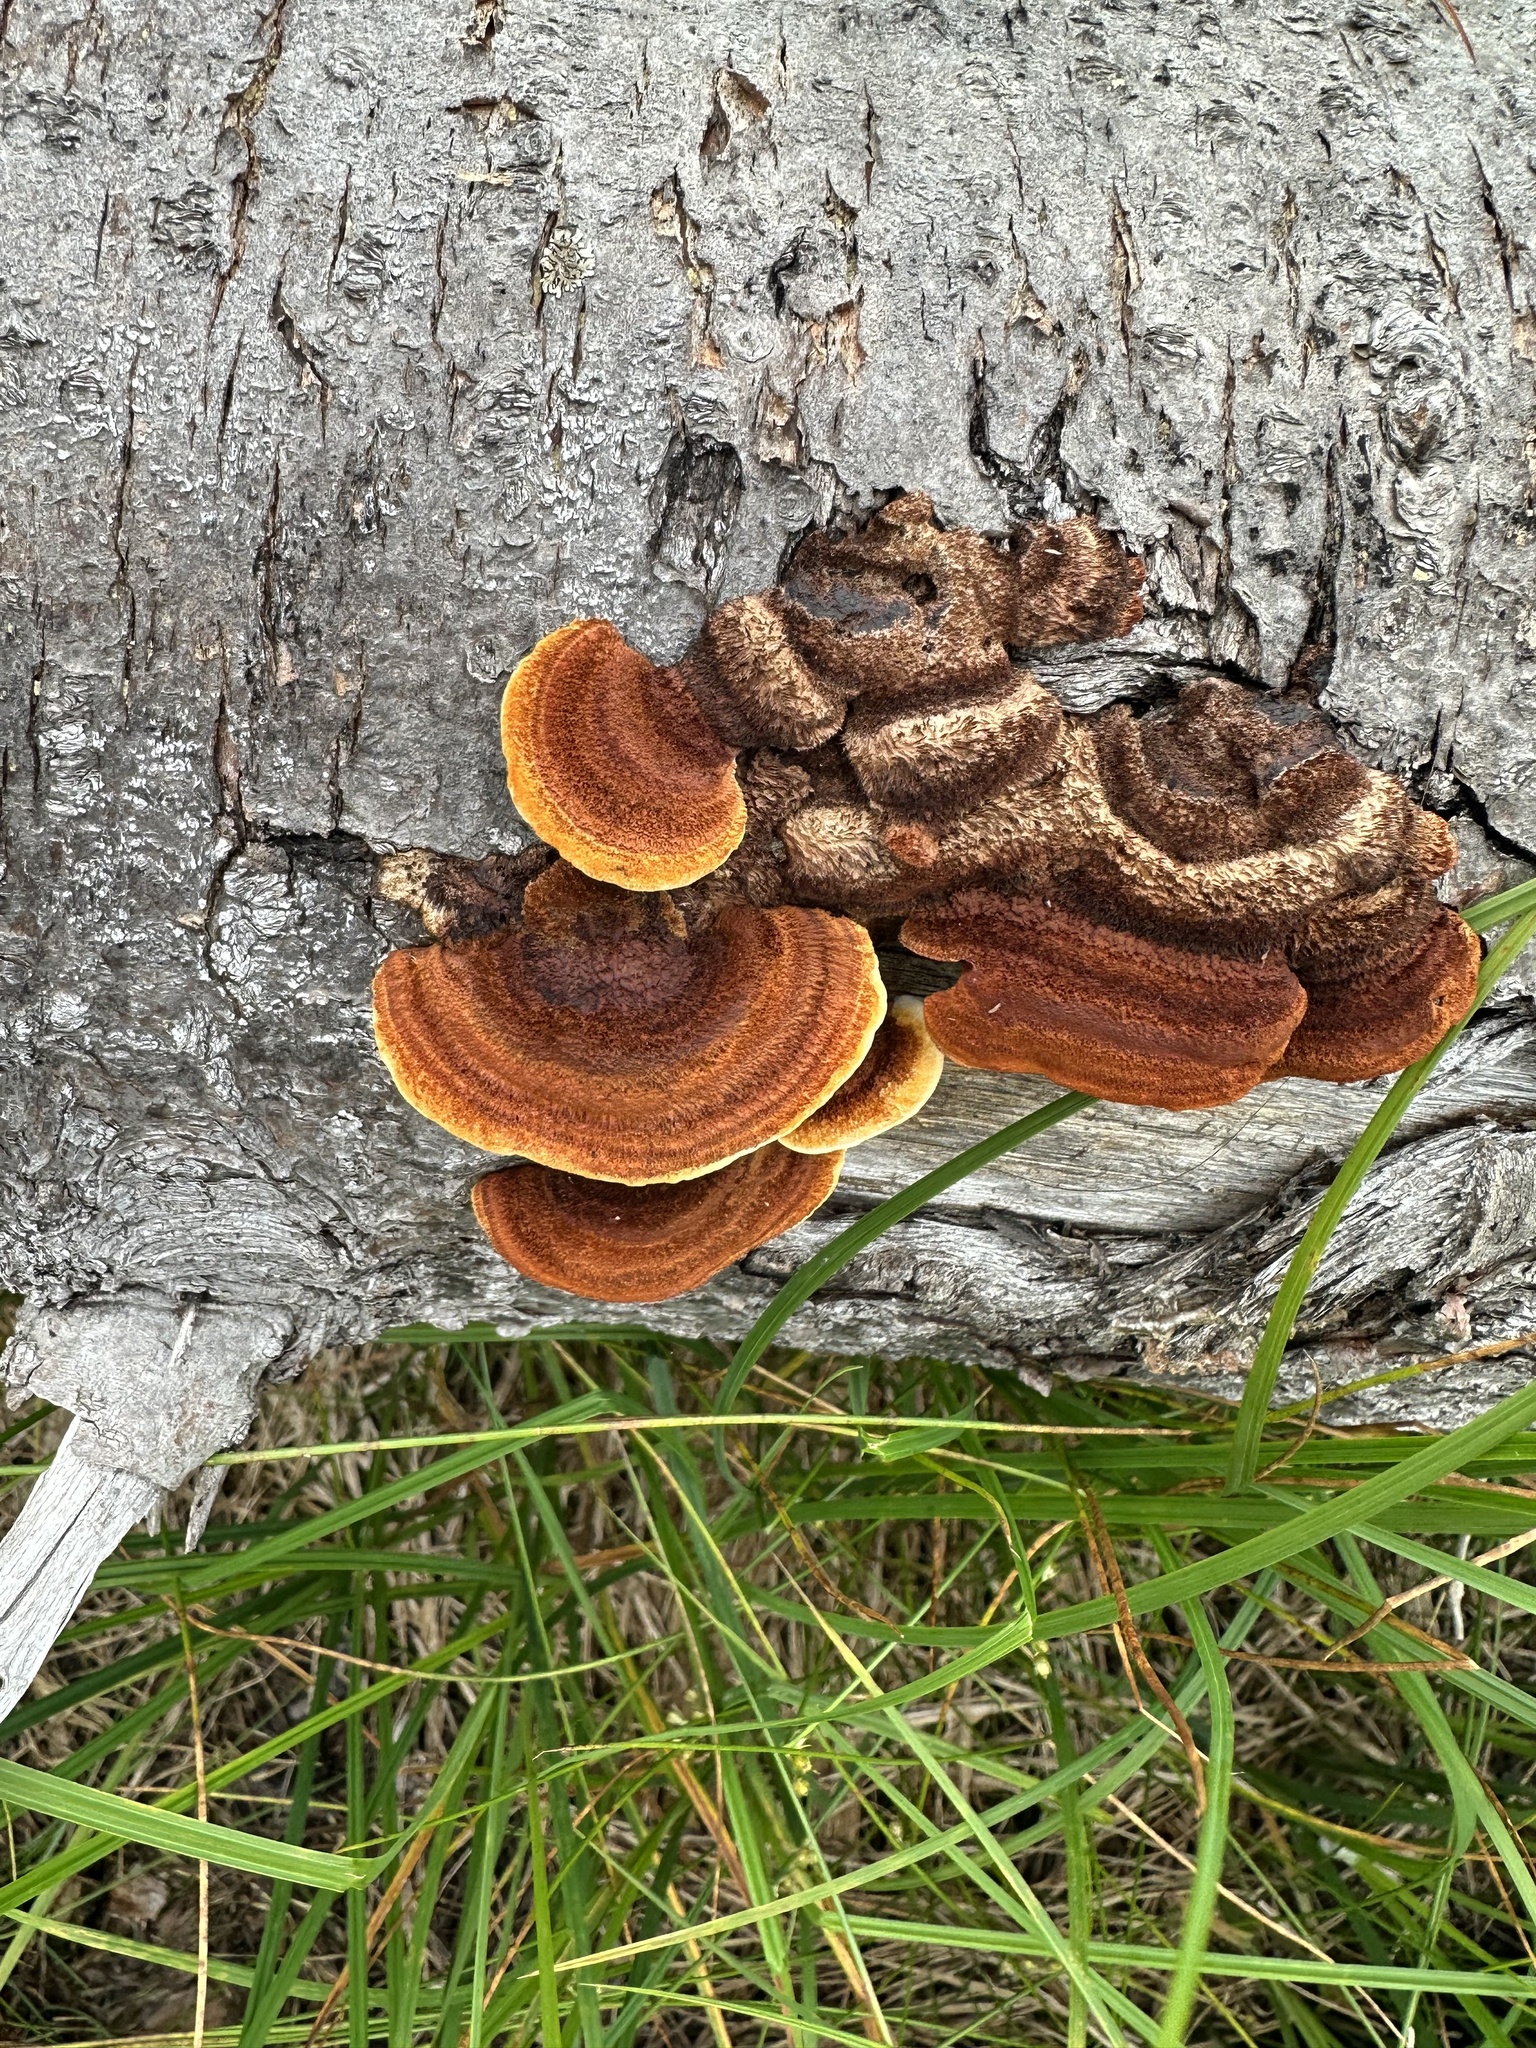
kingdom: Fungi
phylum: Basidiomycota
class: Agaricomycetes
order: Gloeophyllales
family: Gloeophyllaceae
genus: Gloeophyllum
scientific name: Gloeophyllum sepiarium
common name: Conifer mazegill
